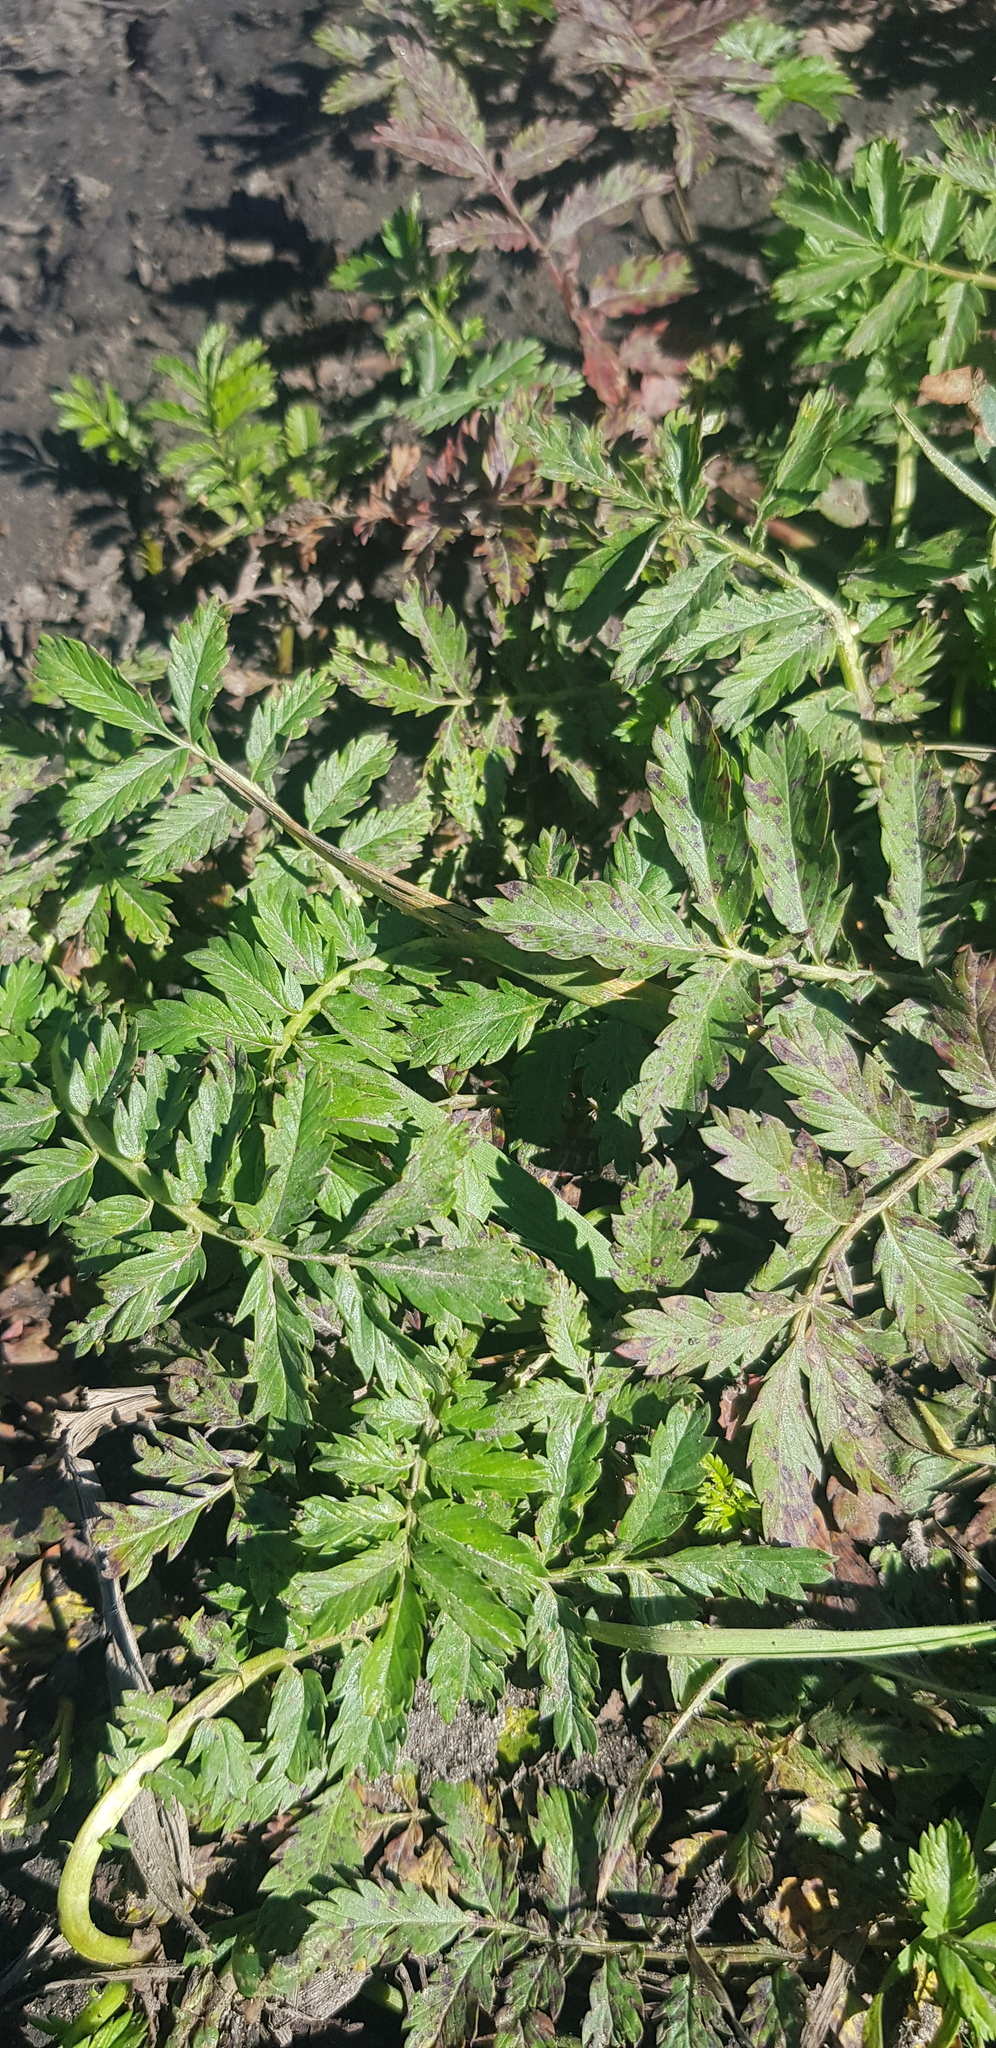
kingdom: Plantae
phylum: Tracheophyta
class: Magnoliopsida
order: Rosales
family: Rosaceae
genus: Argentina
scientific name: Argentina anserina
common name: Common silverweed
